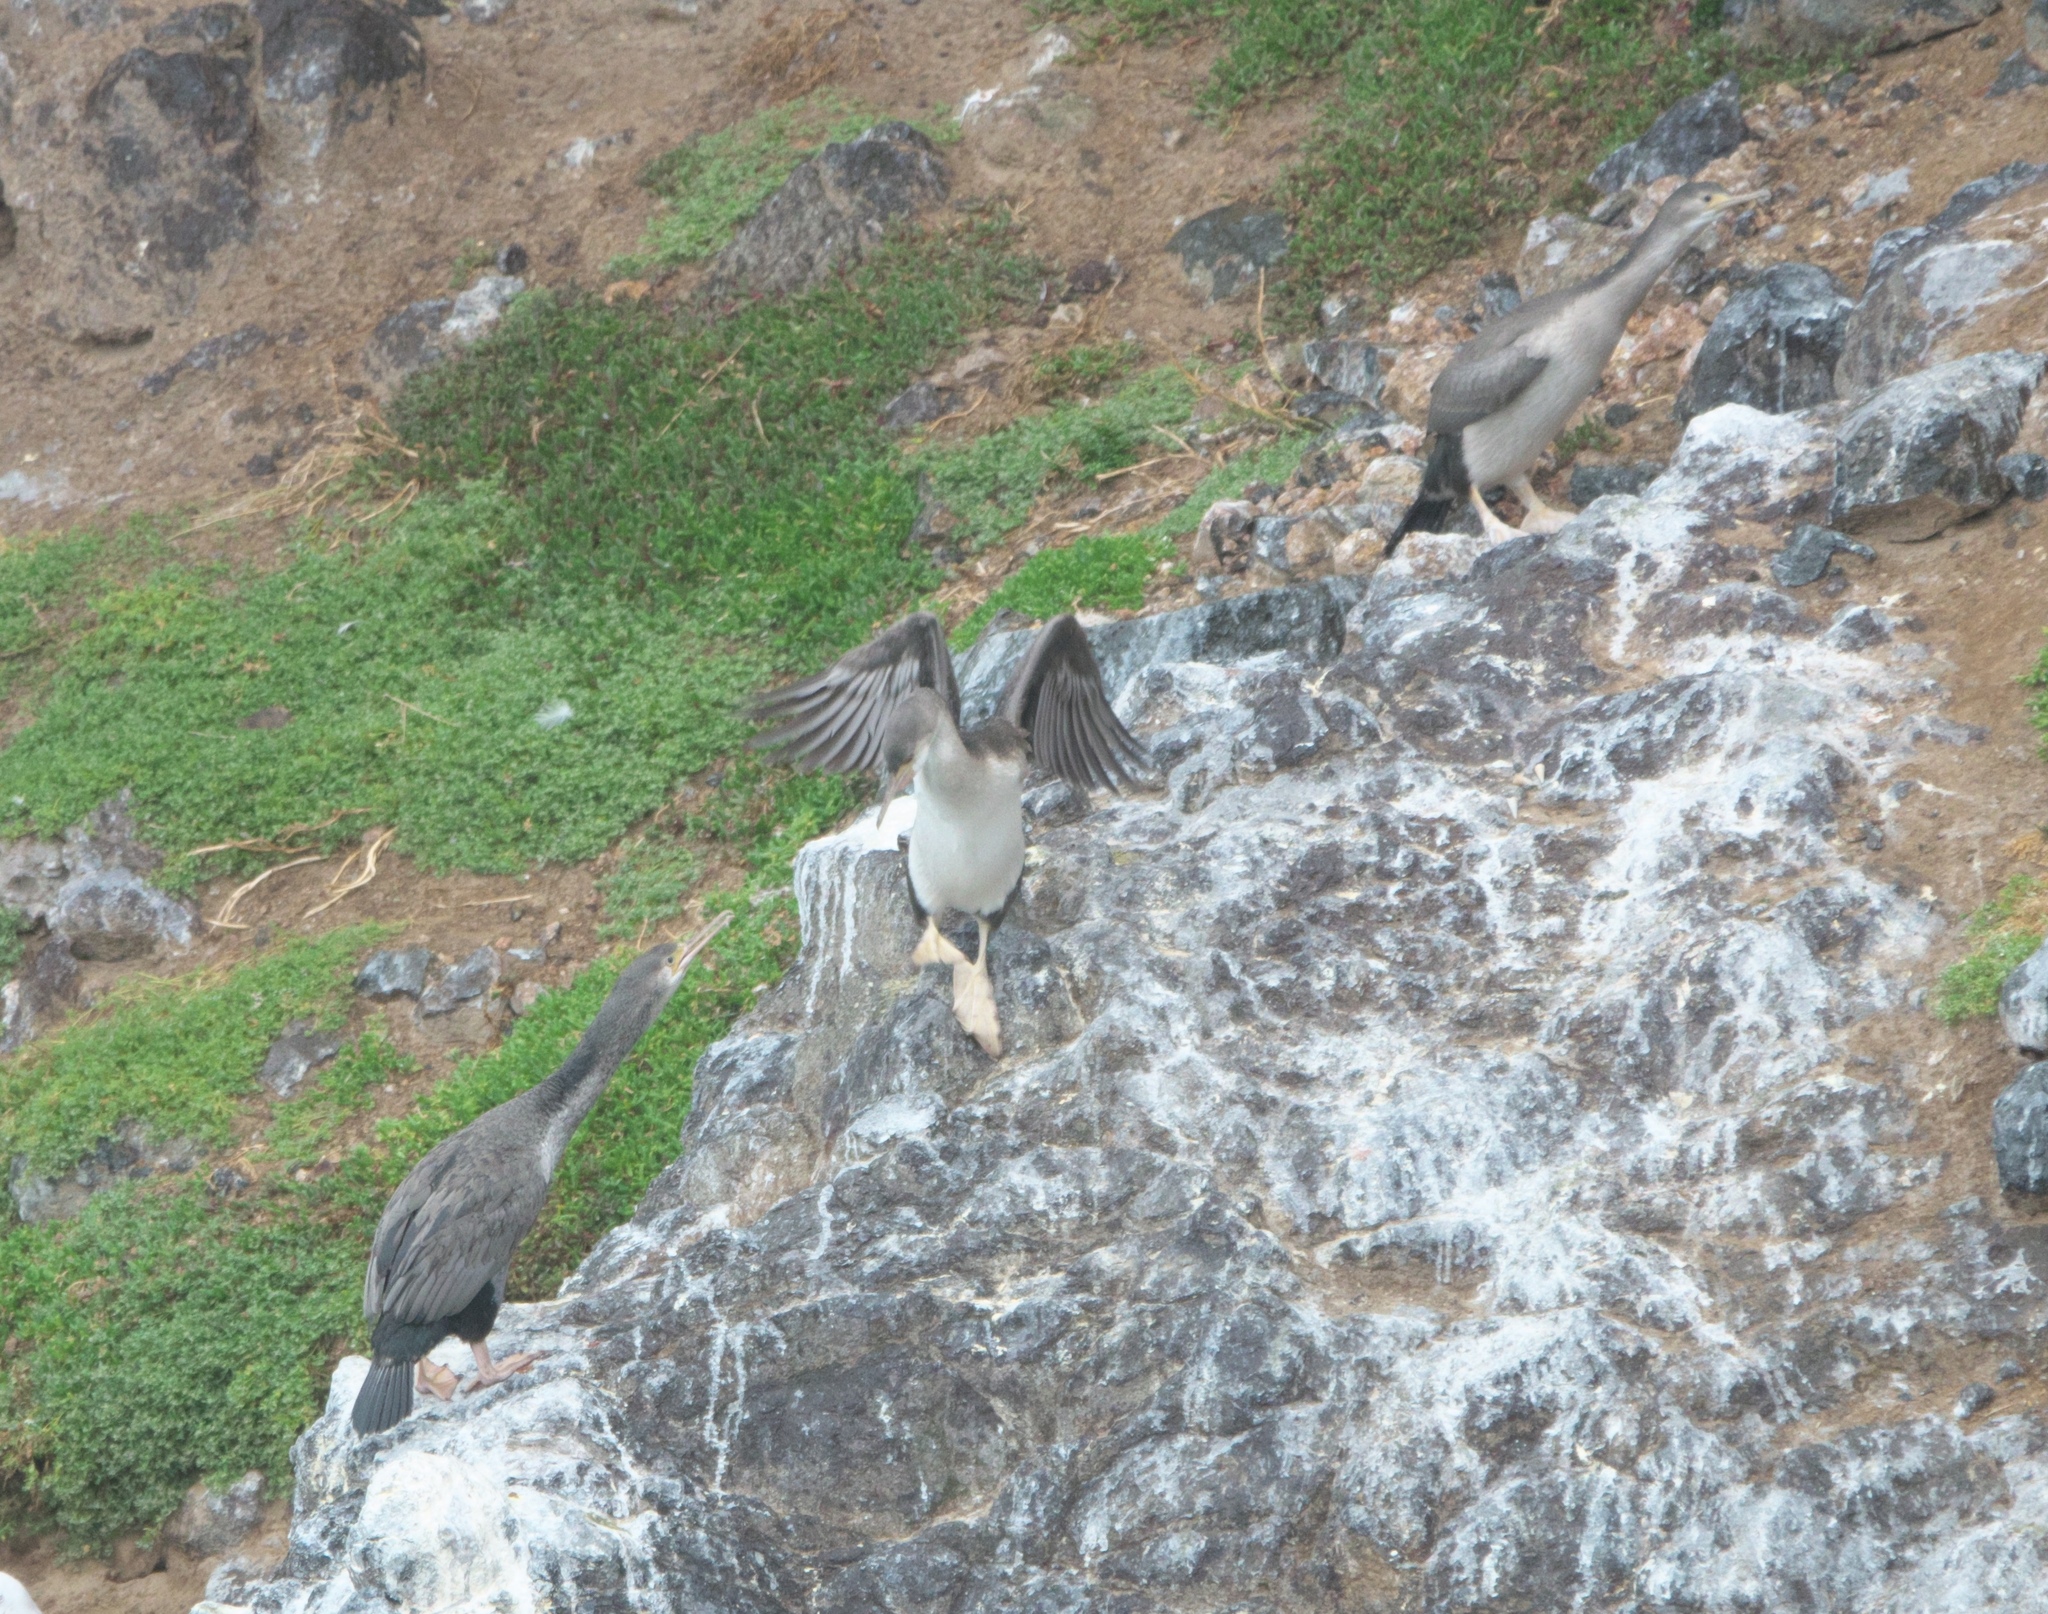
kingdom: Animalia
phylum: Chordata
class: Aves
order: Suliformes
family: Phalacrocoracidae
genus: Phalacrocorax
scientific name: Phalacrocorax punctatus
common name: Spotted shag
